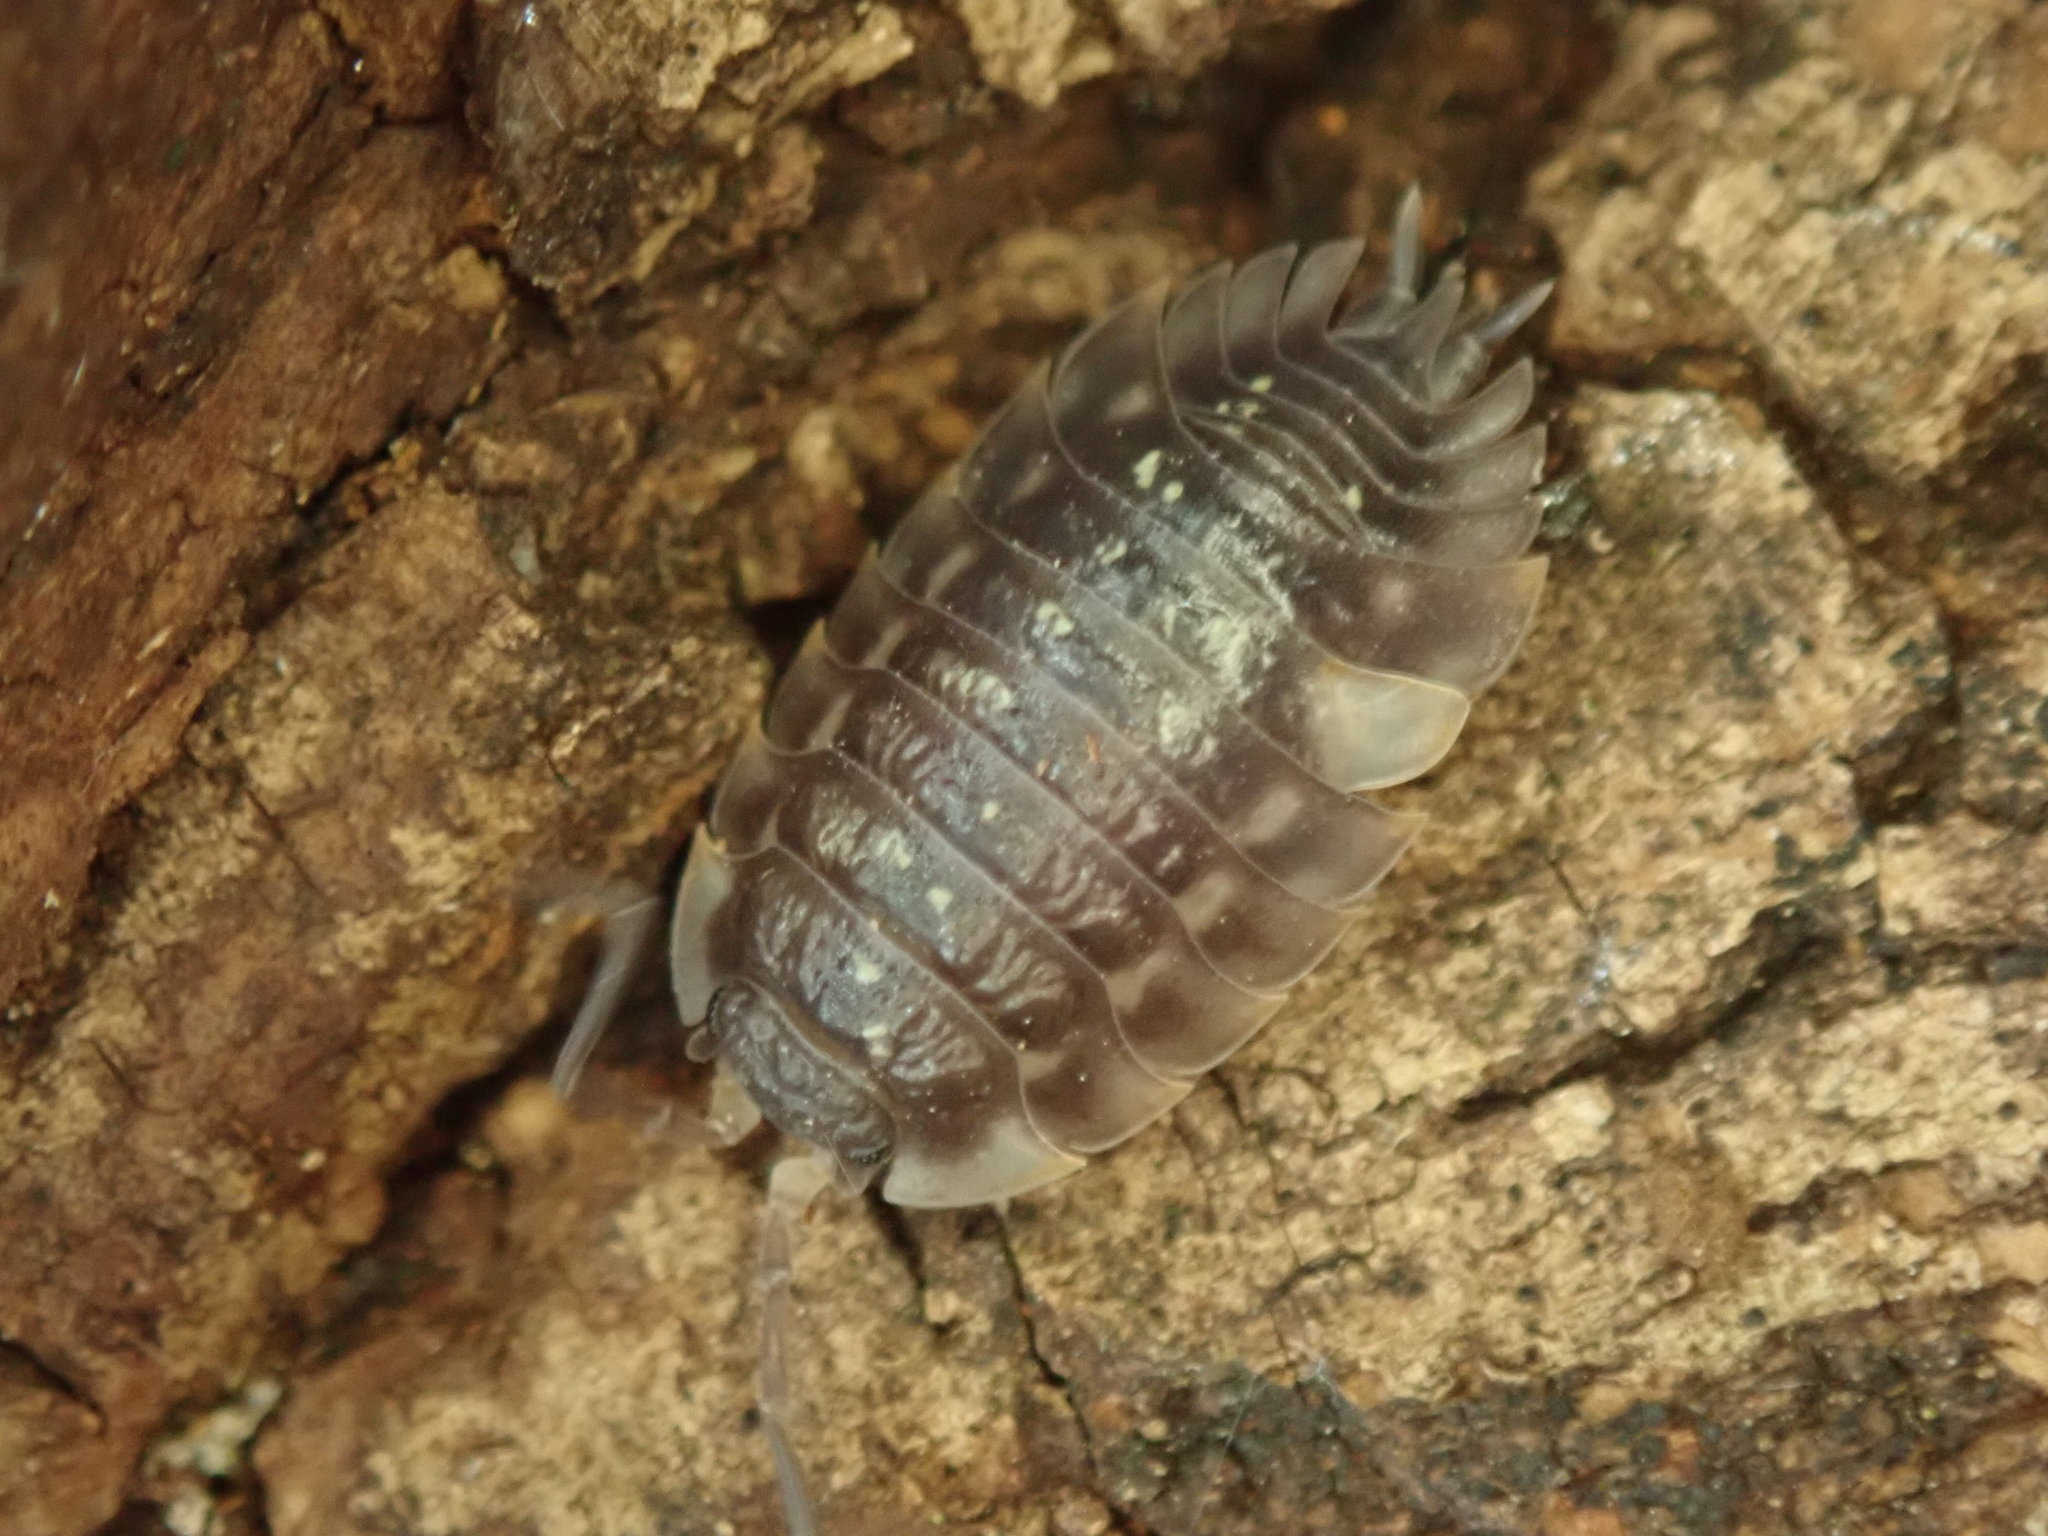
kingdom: Animalia
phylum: Arthropoda
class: Malacostraca
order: Isopoda
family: Oniscidae
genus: Oniscus
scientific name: Oniscus asellus
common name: Common shiny woodlouse
